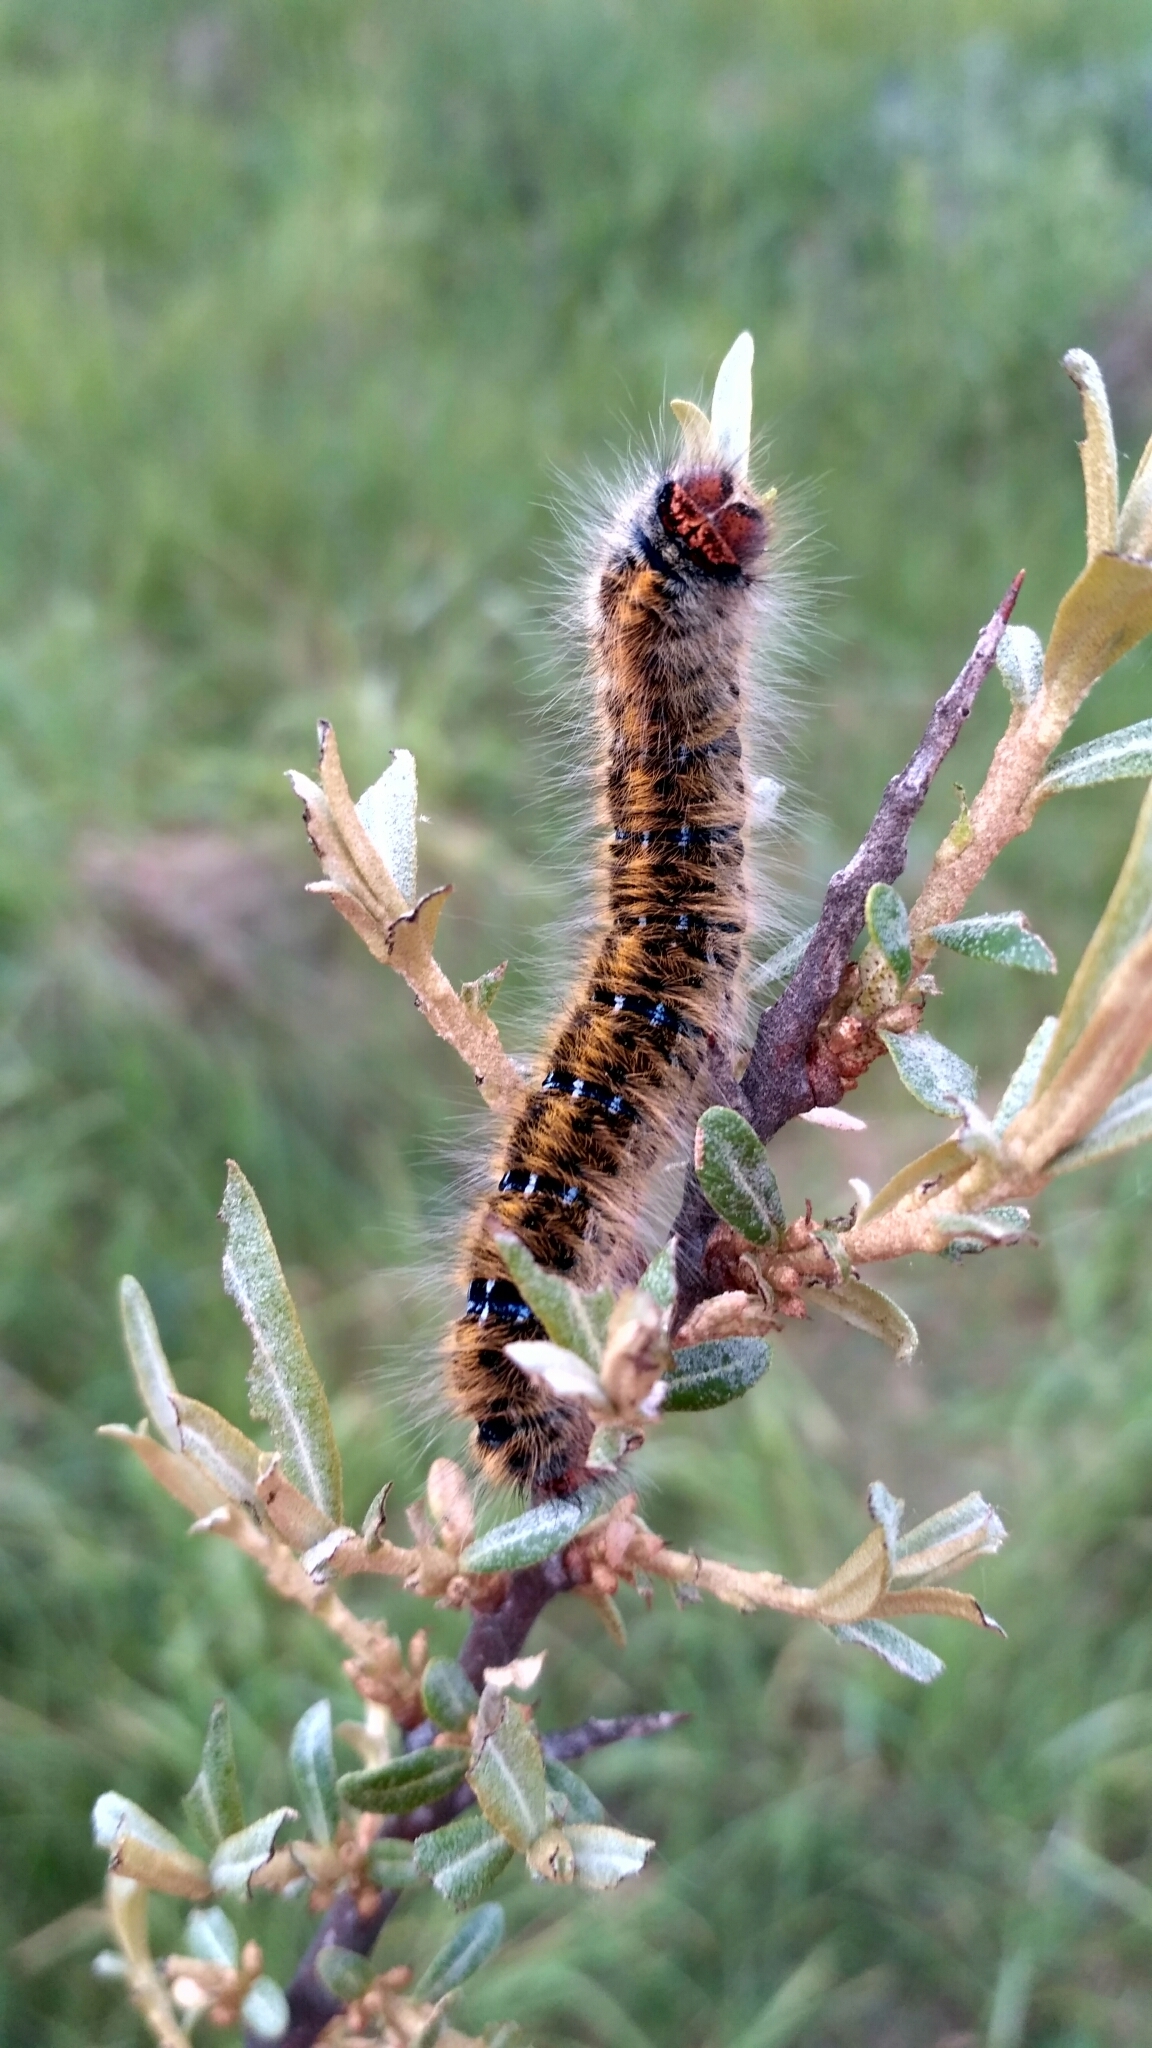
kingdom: Animalia
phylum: Arthropoda
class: Insecta
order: Lepidoptera
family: Lasiocampidae
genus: Lasiocampa
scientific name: Lasiocampa trifolii
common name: Grass eggar
